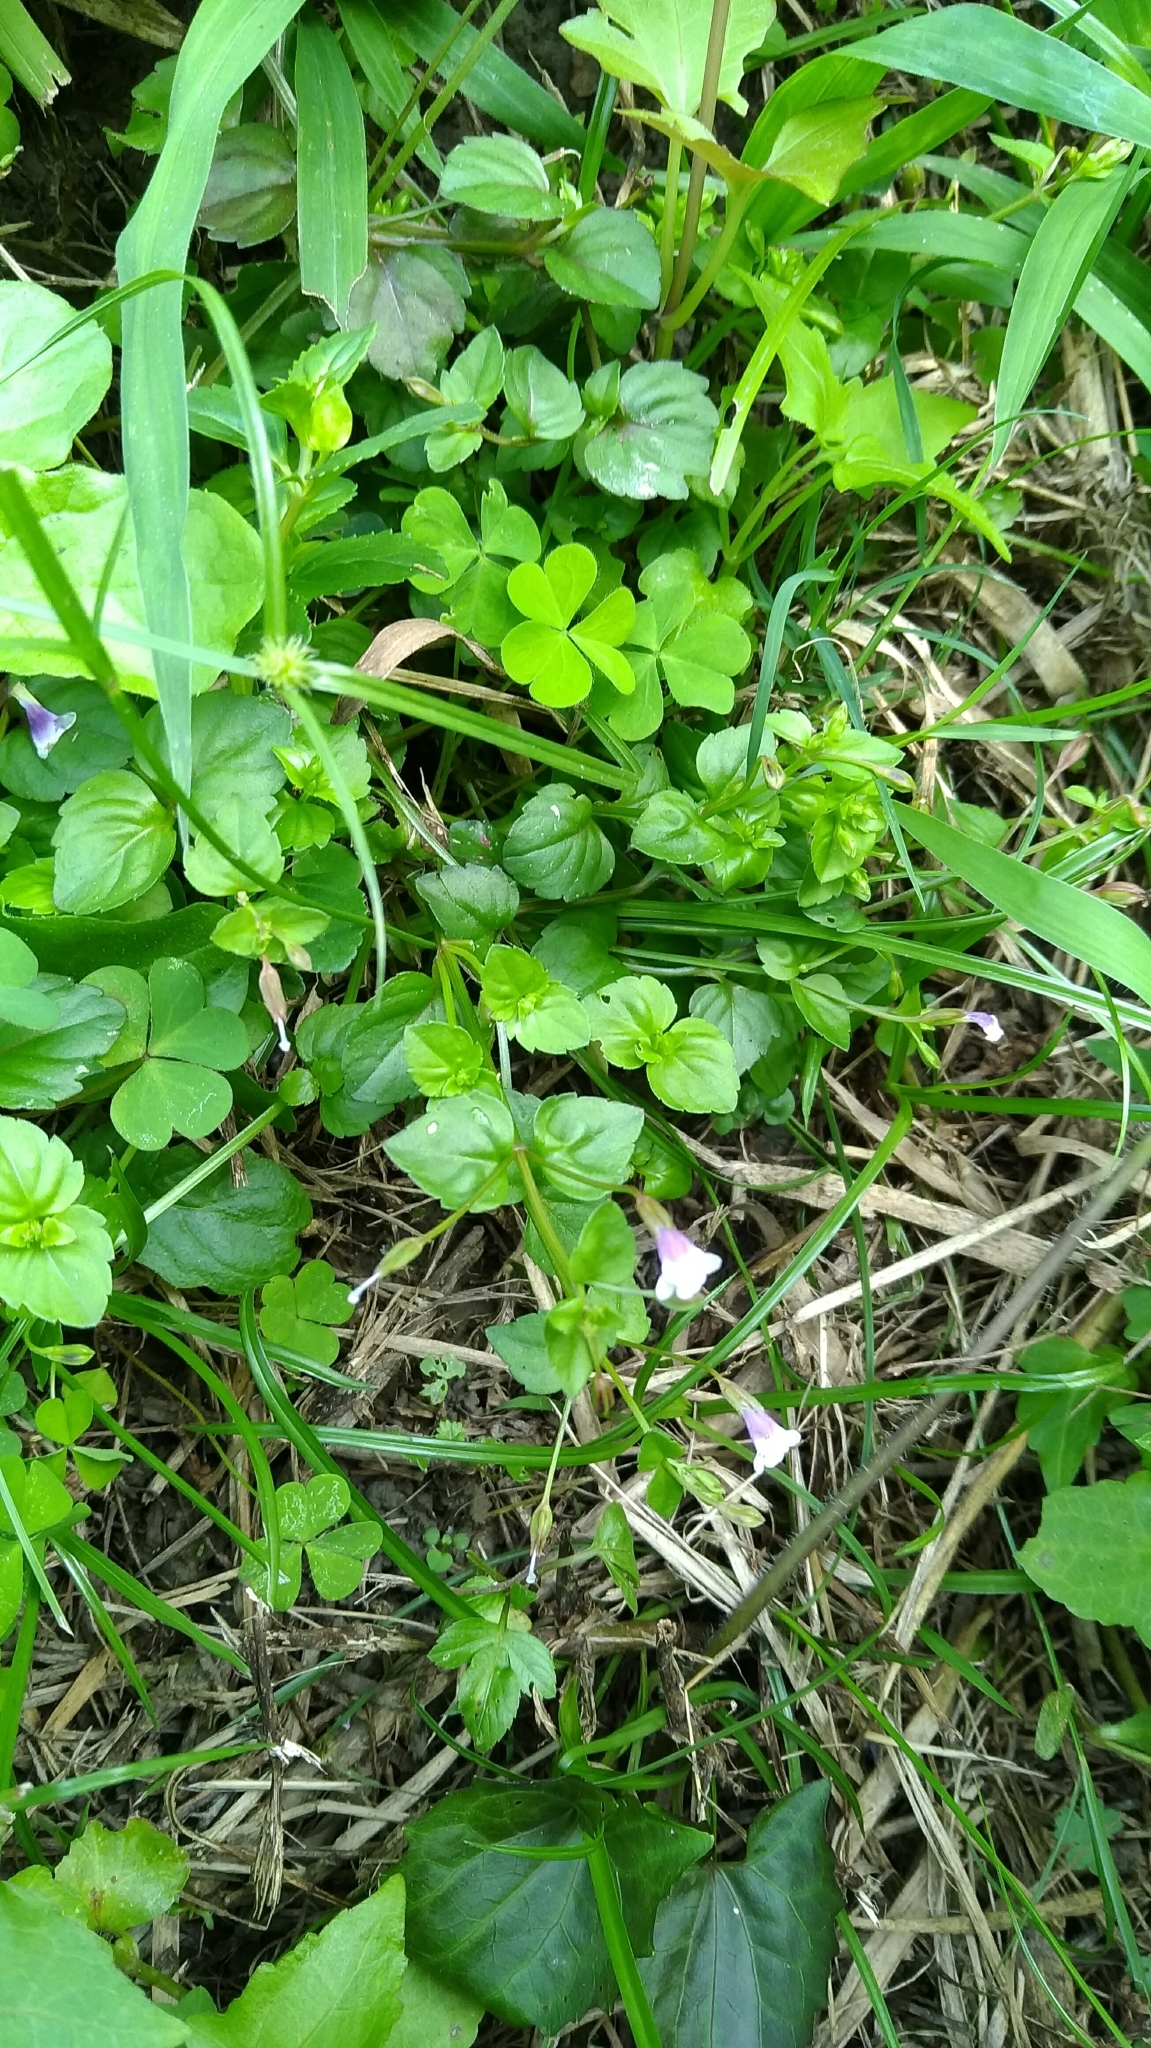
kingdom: Plantae
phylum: Tracheophyta
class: Magnoliopsida
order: Lamiales
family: Linderniaceae
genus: Torenia
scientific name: Torenia crustacea
